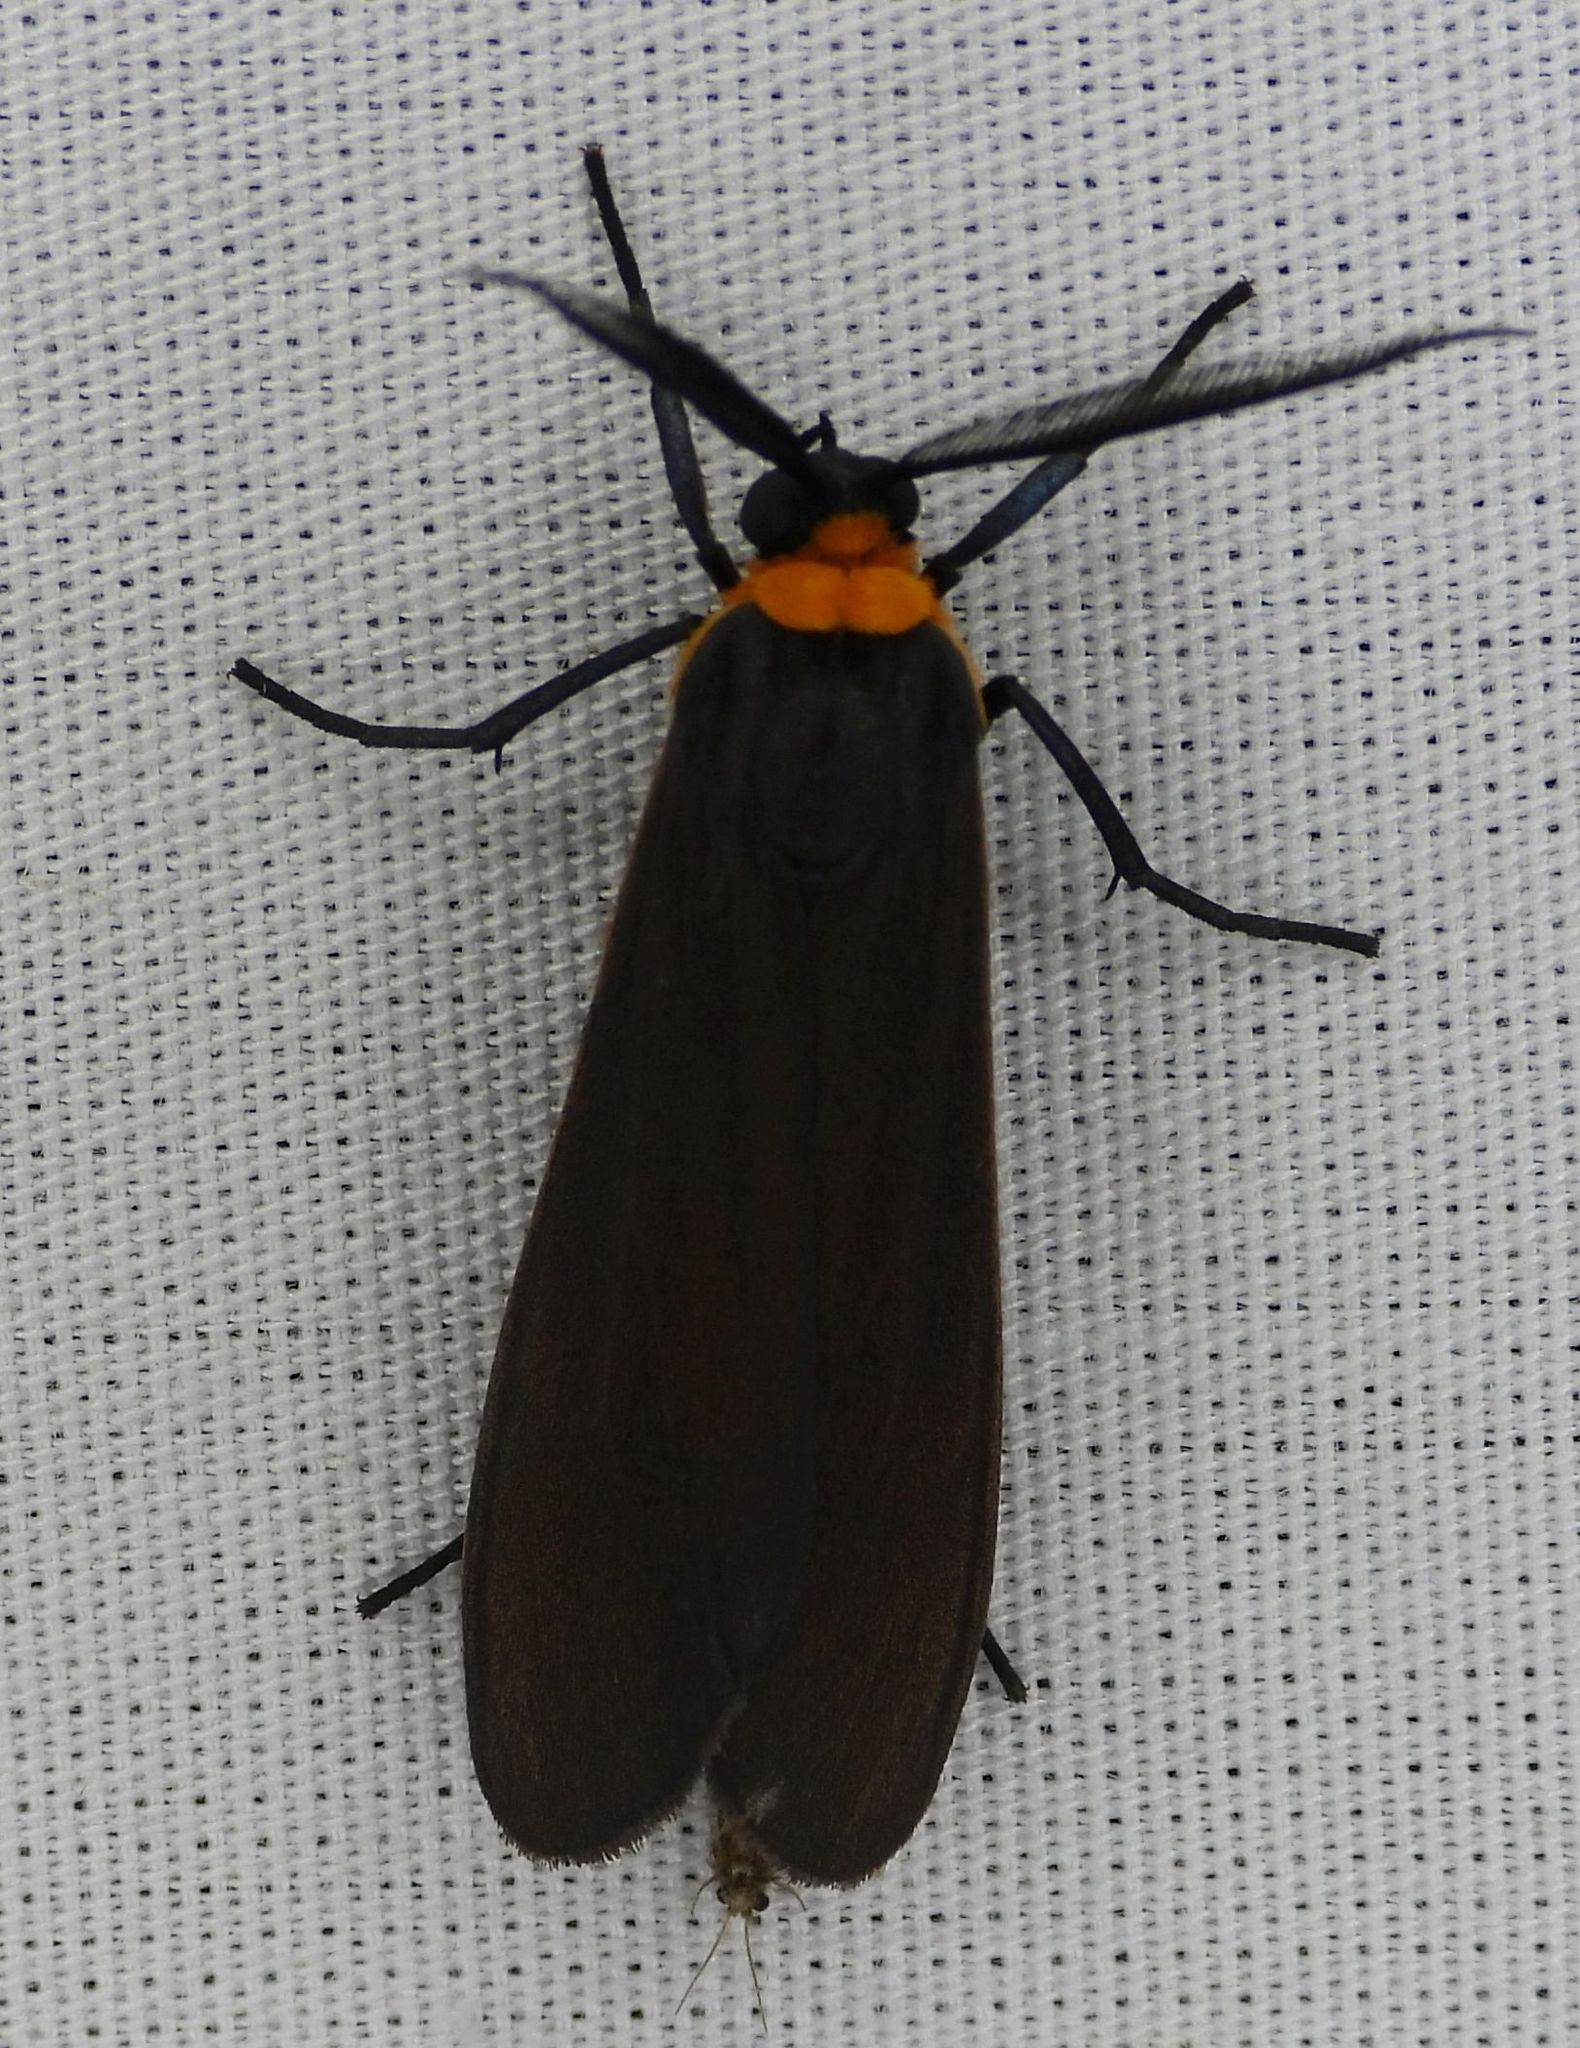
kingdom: Animalia
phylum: Arthropoda
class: Insecta
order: Lepidoptera
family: Erebidae
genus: Cisseps
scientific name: Cisseps fulvicollis
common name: Yellow-collared scape moth
